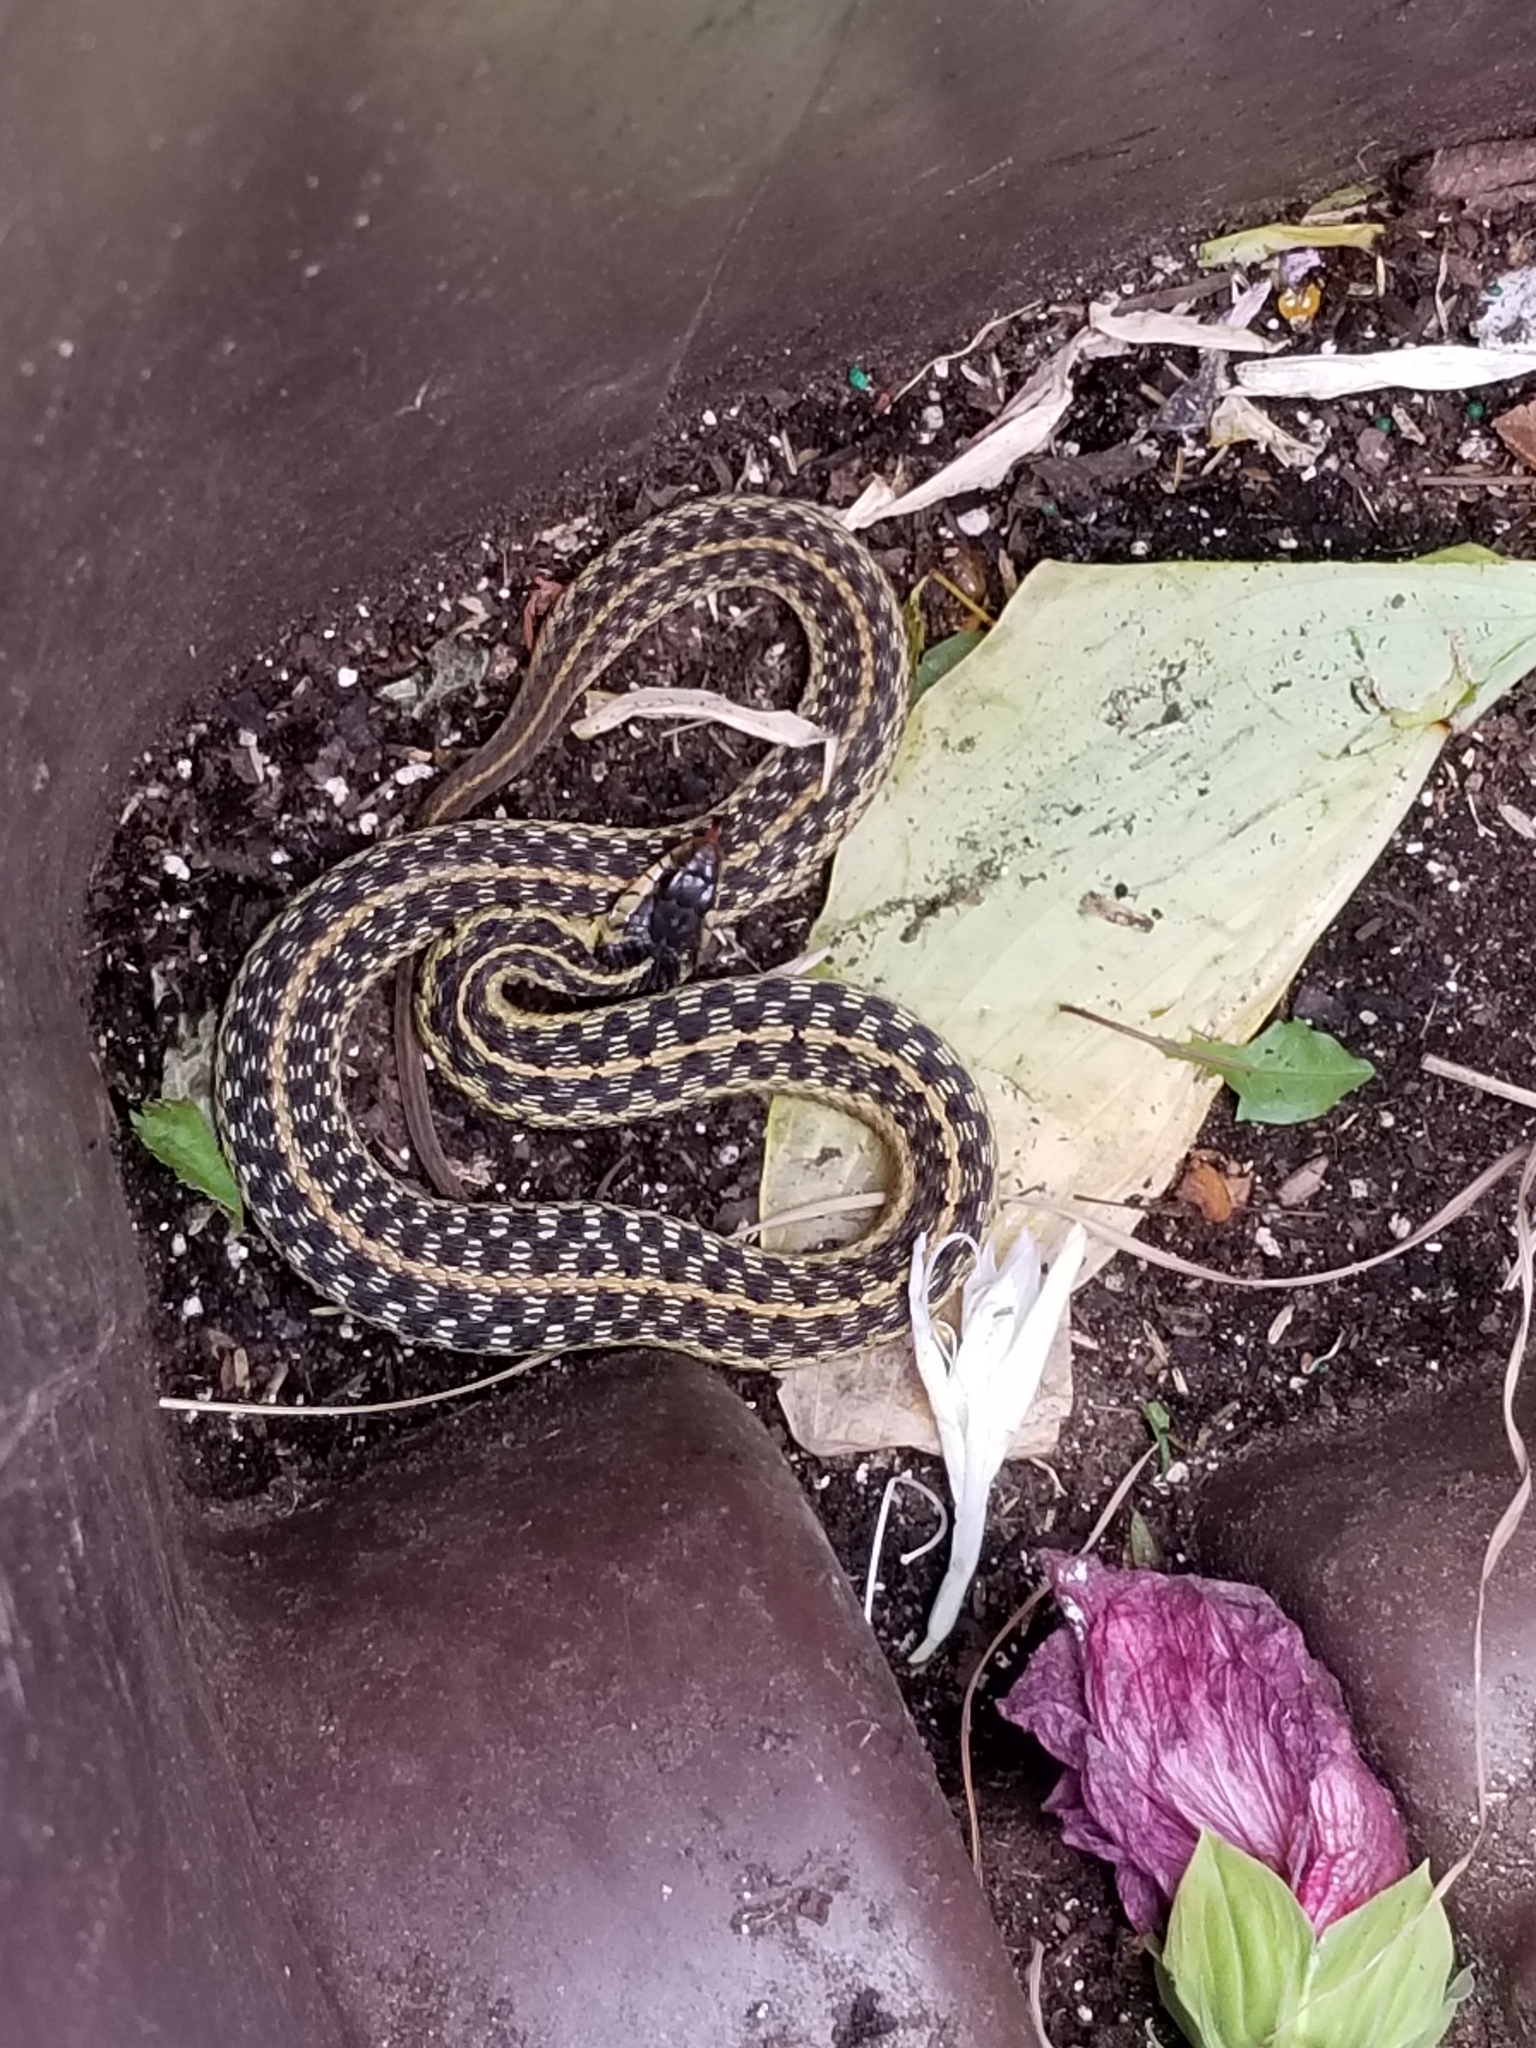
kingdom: Animalia
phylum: Chordata
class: Squamata
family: Colubridae
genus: Thamnophis
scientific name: Thamnophis sirtalis
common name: Common garter snake
